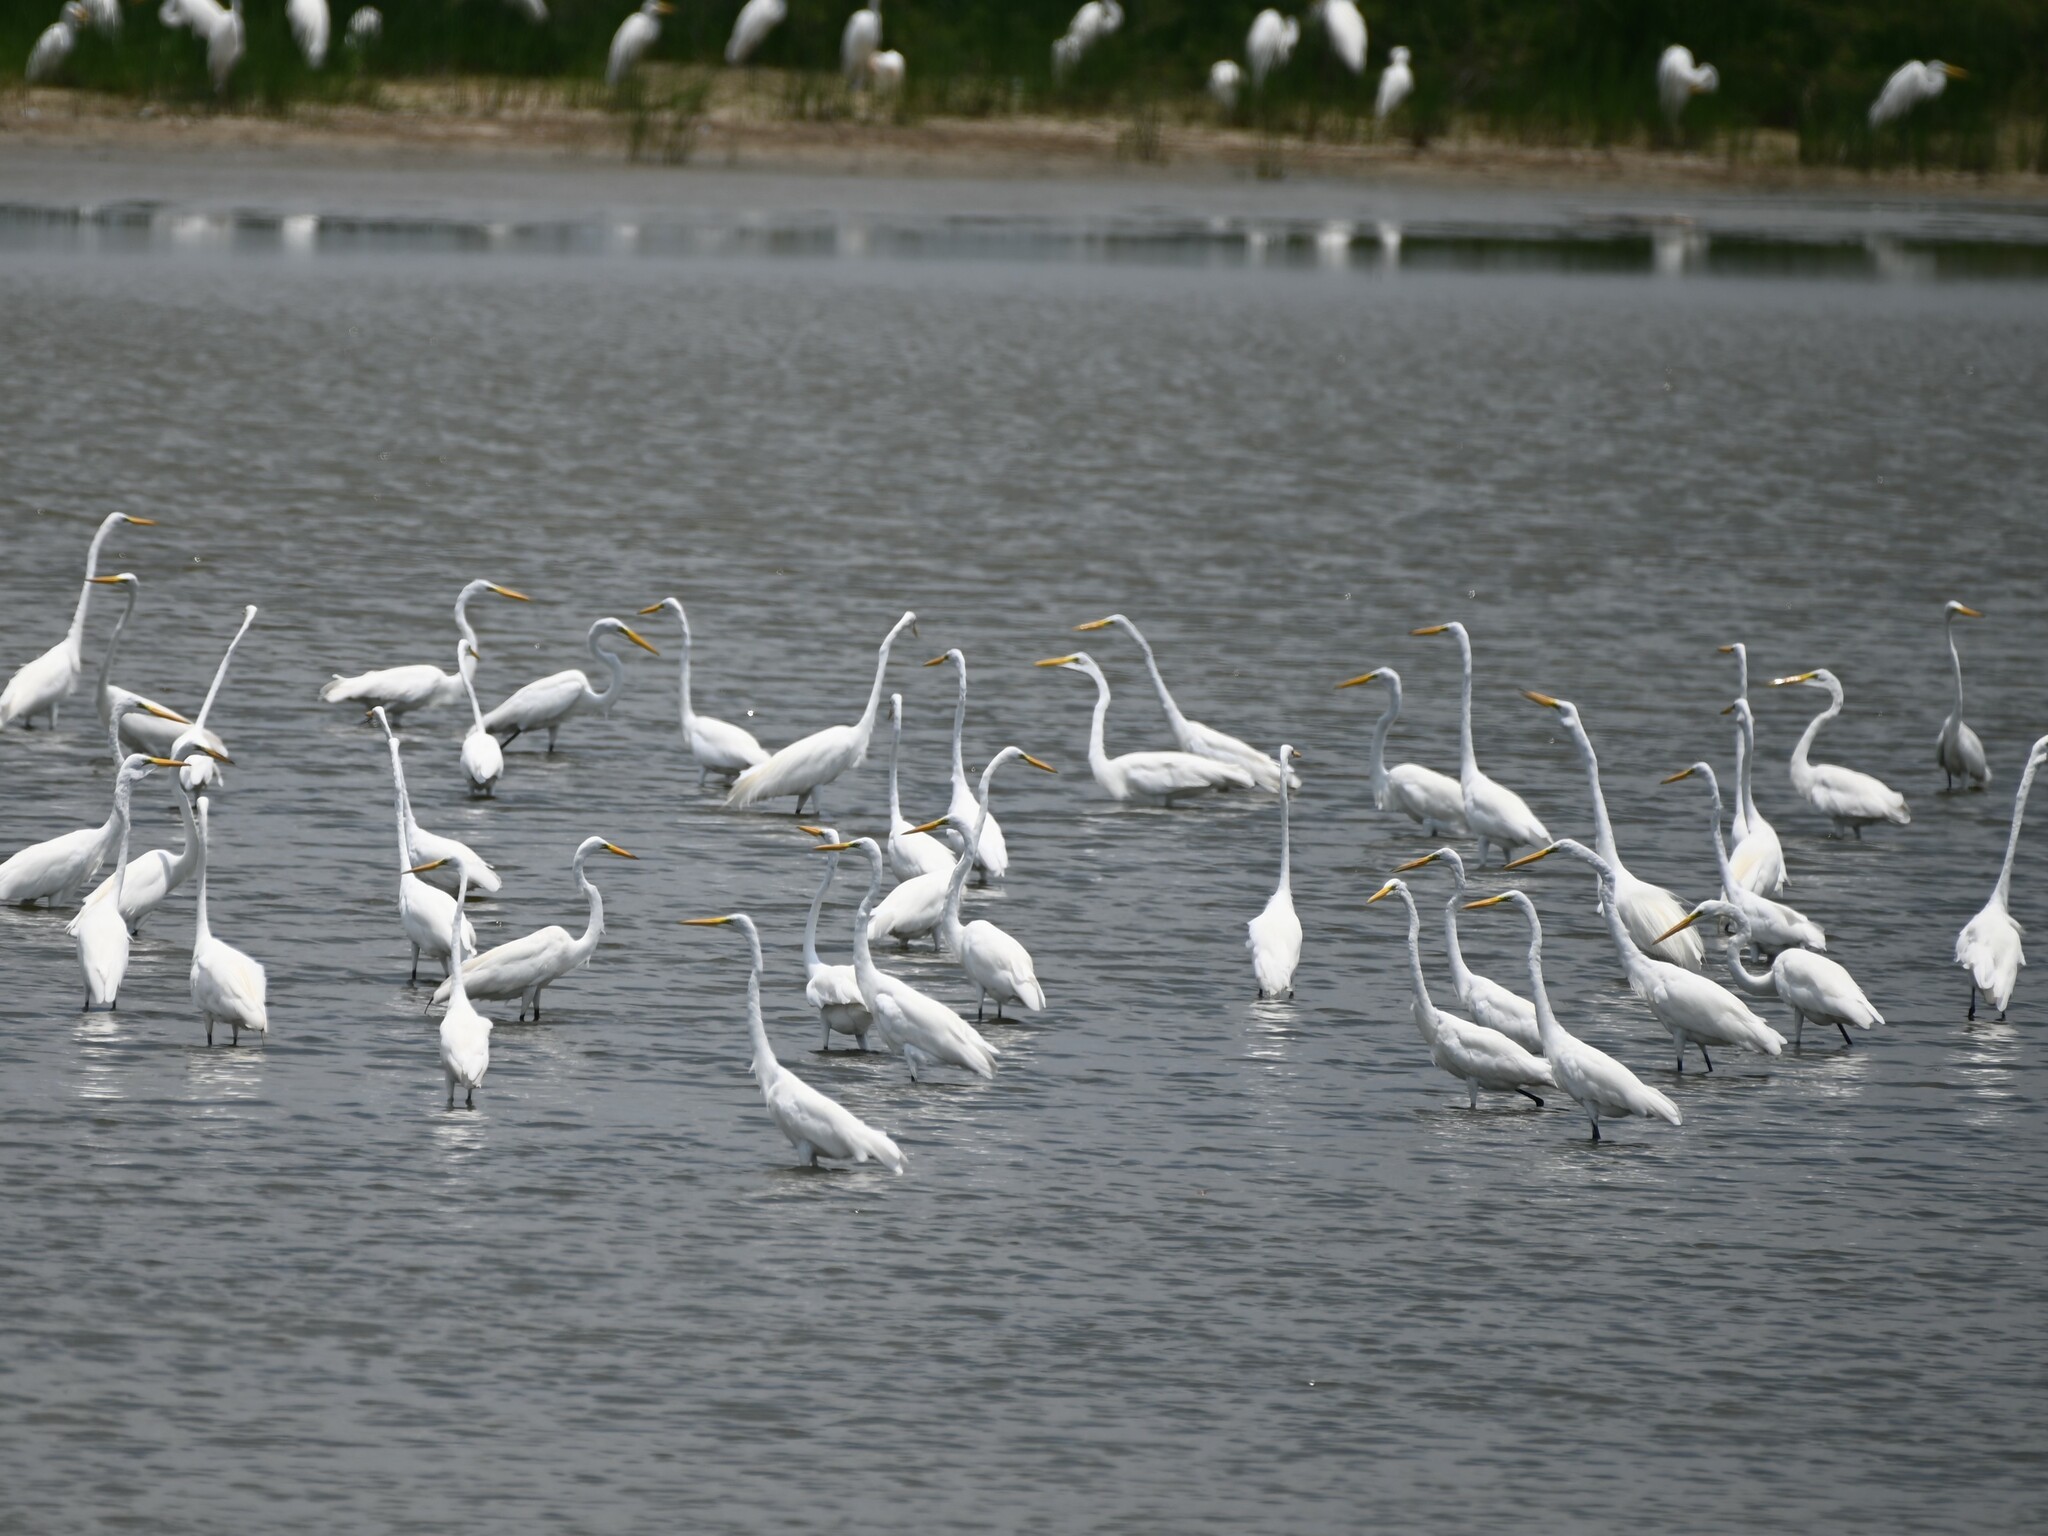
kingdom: Animalia
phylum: Chordata
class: Aves
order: Pelecaniformes
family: Ardeidae
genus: Ardea
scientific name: Ardea alba
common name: Great egret
